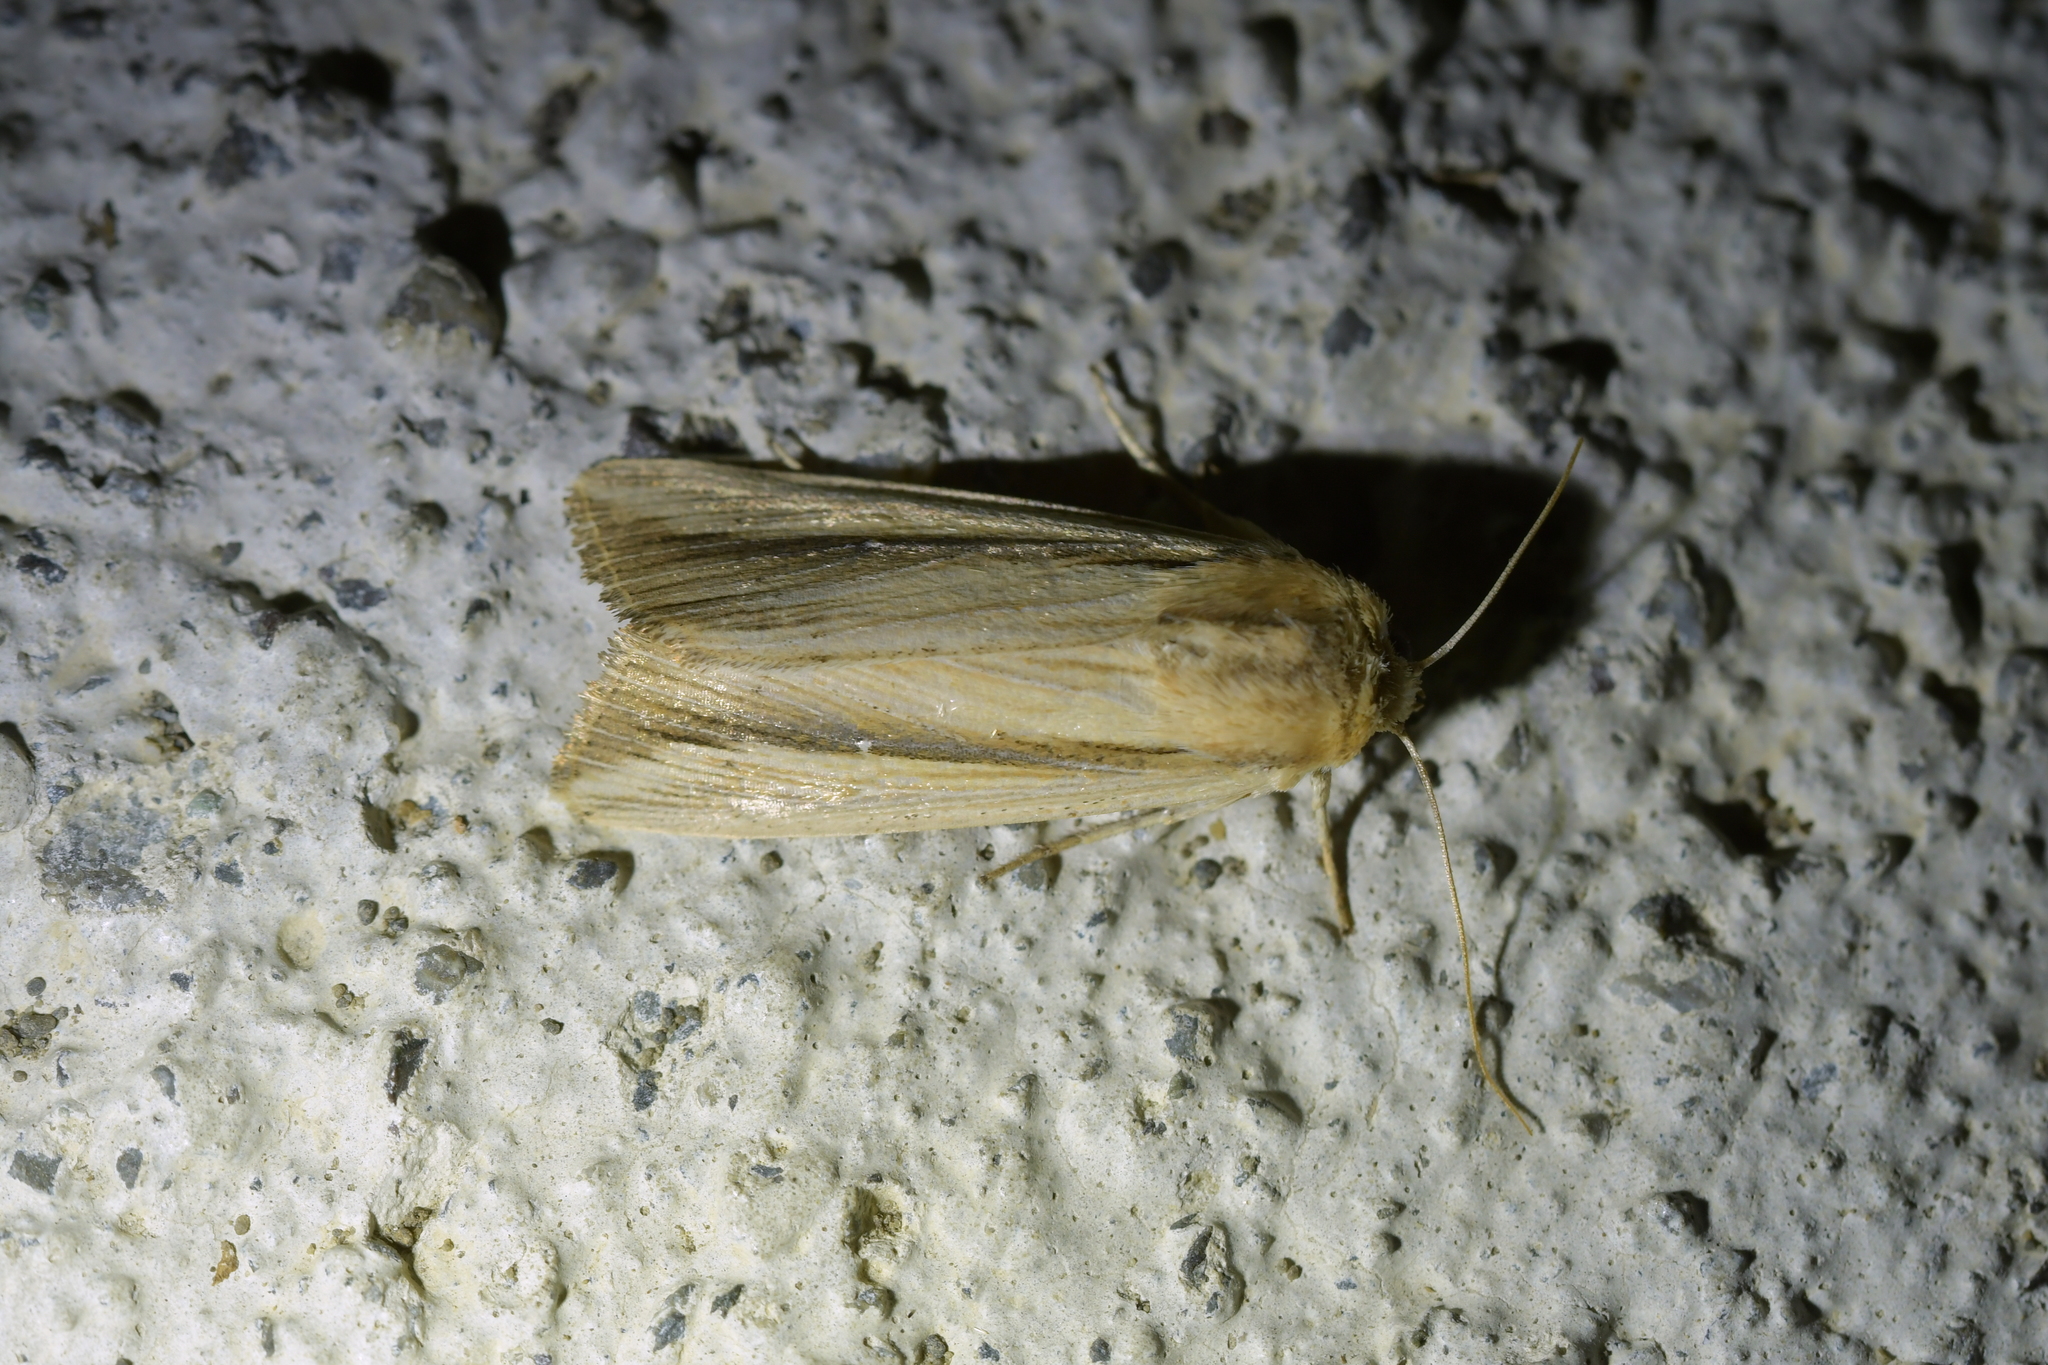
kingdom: Animalia
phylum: Arthropoda
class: Insecta
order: Lepidoptera
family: Noctuidae
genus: Leucania
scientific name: Leucania stenographa
